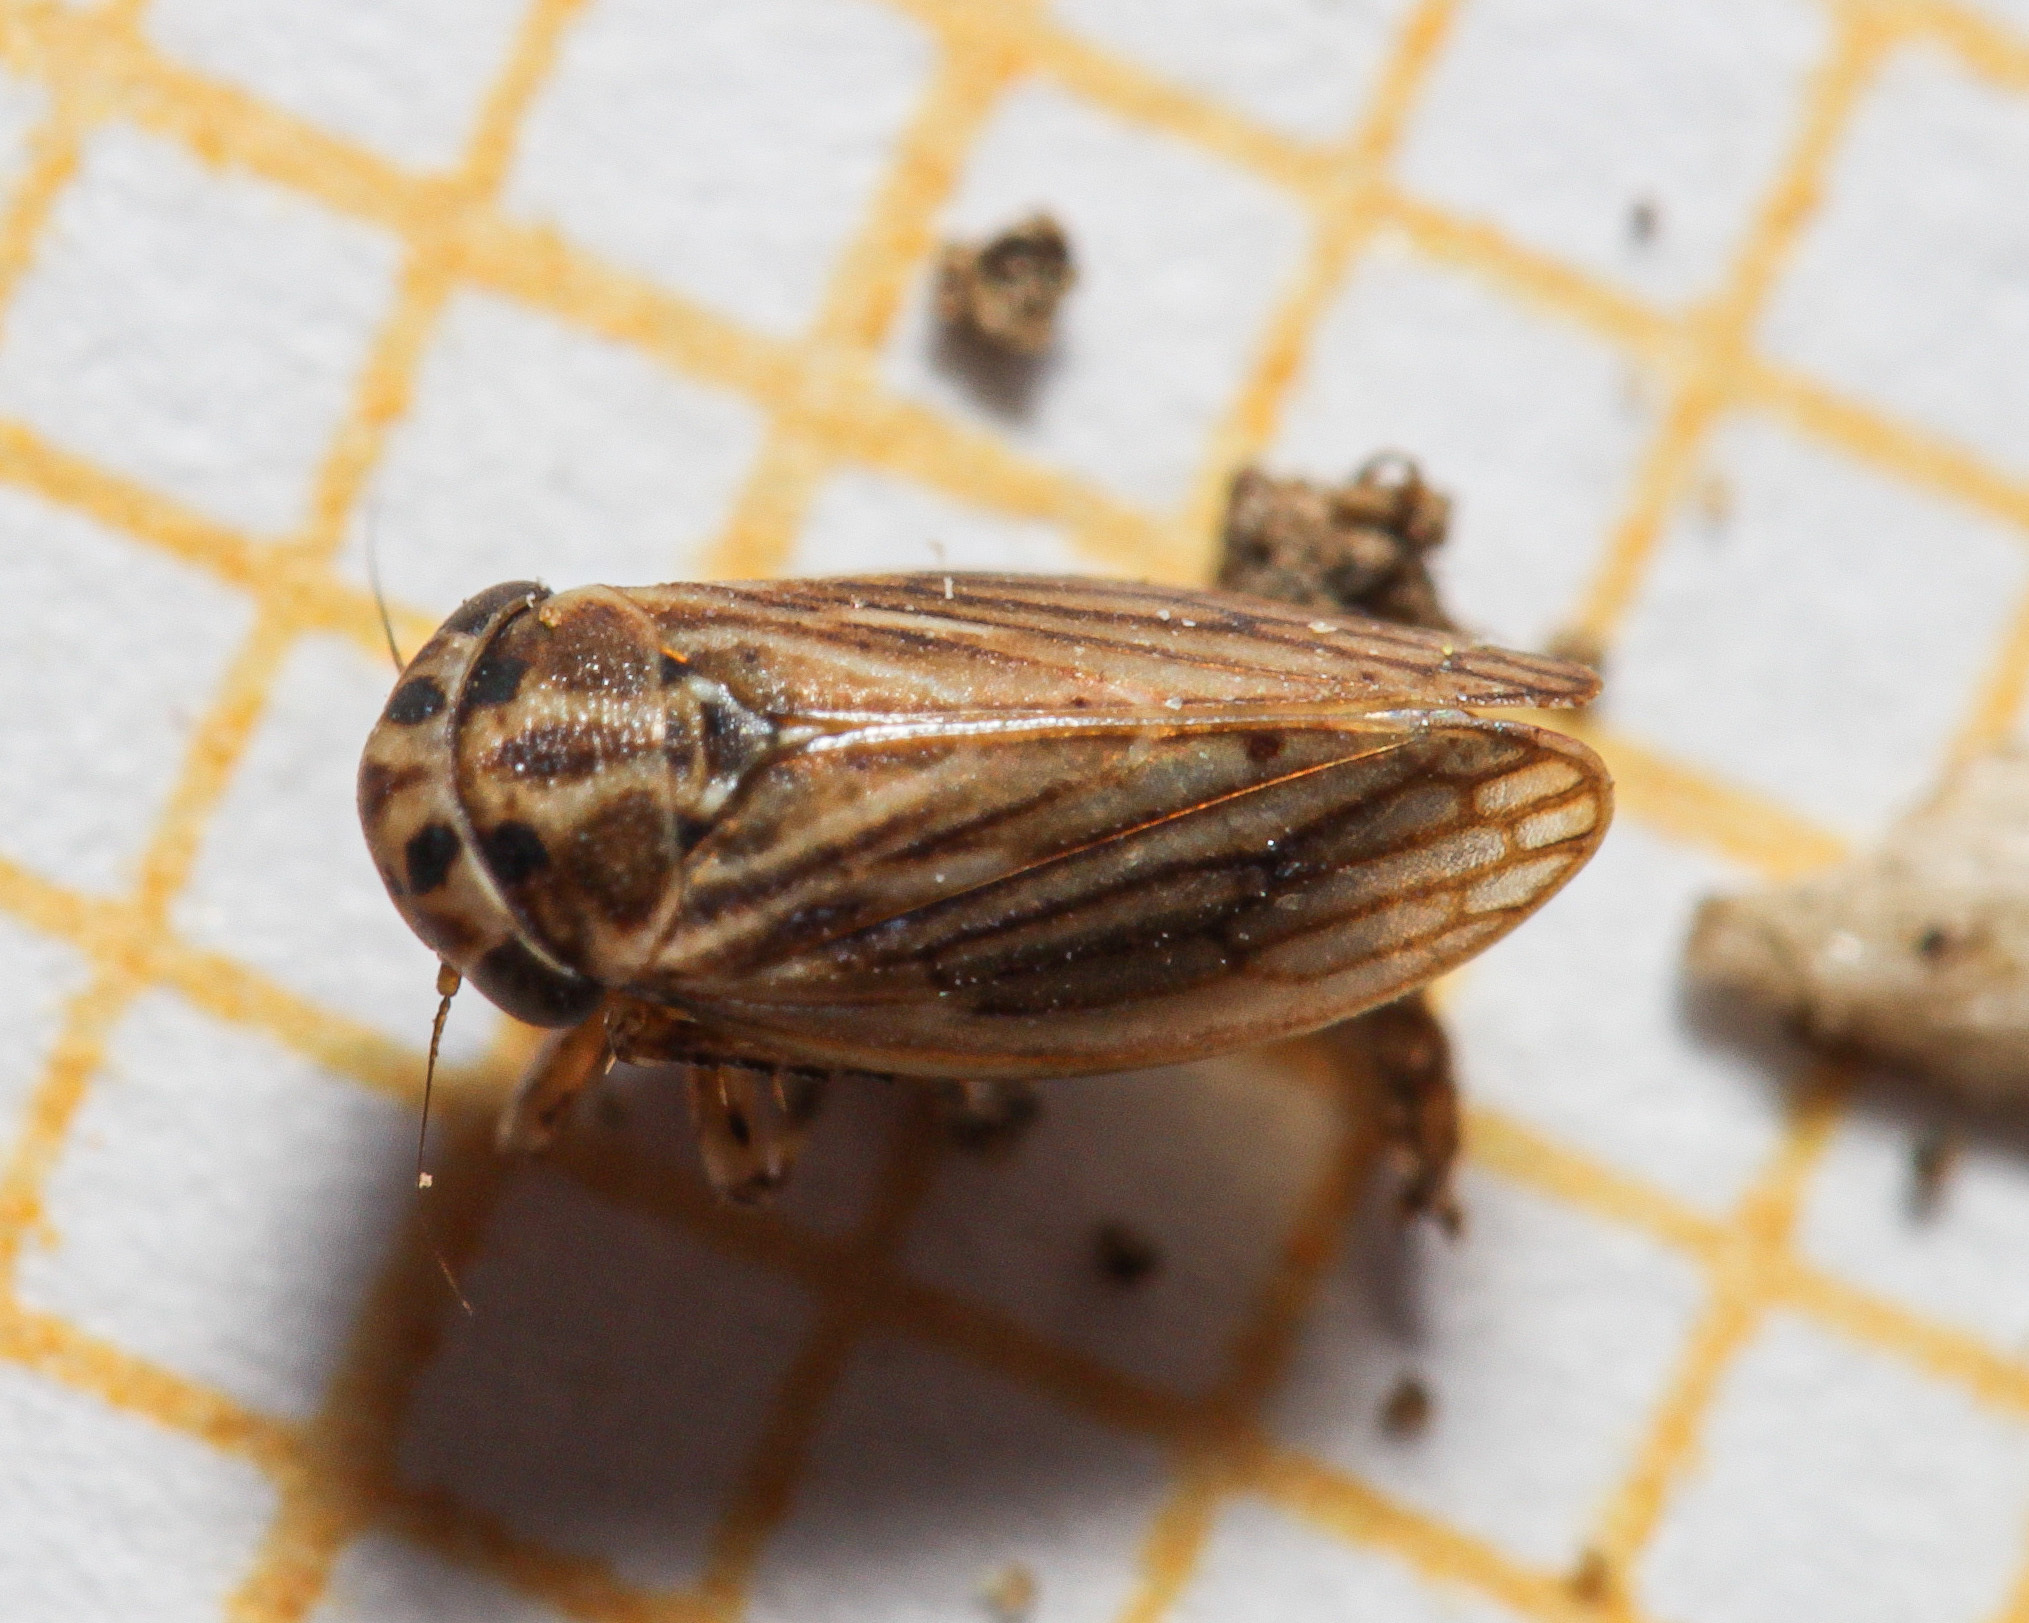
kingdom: Animalia
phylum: Arthropoda
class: Insecta
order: Hemiptera
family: Cicadellidae
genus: Anaceratagallia
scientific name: Anaceratagallia
